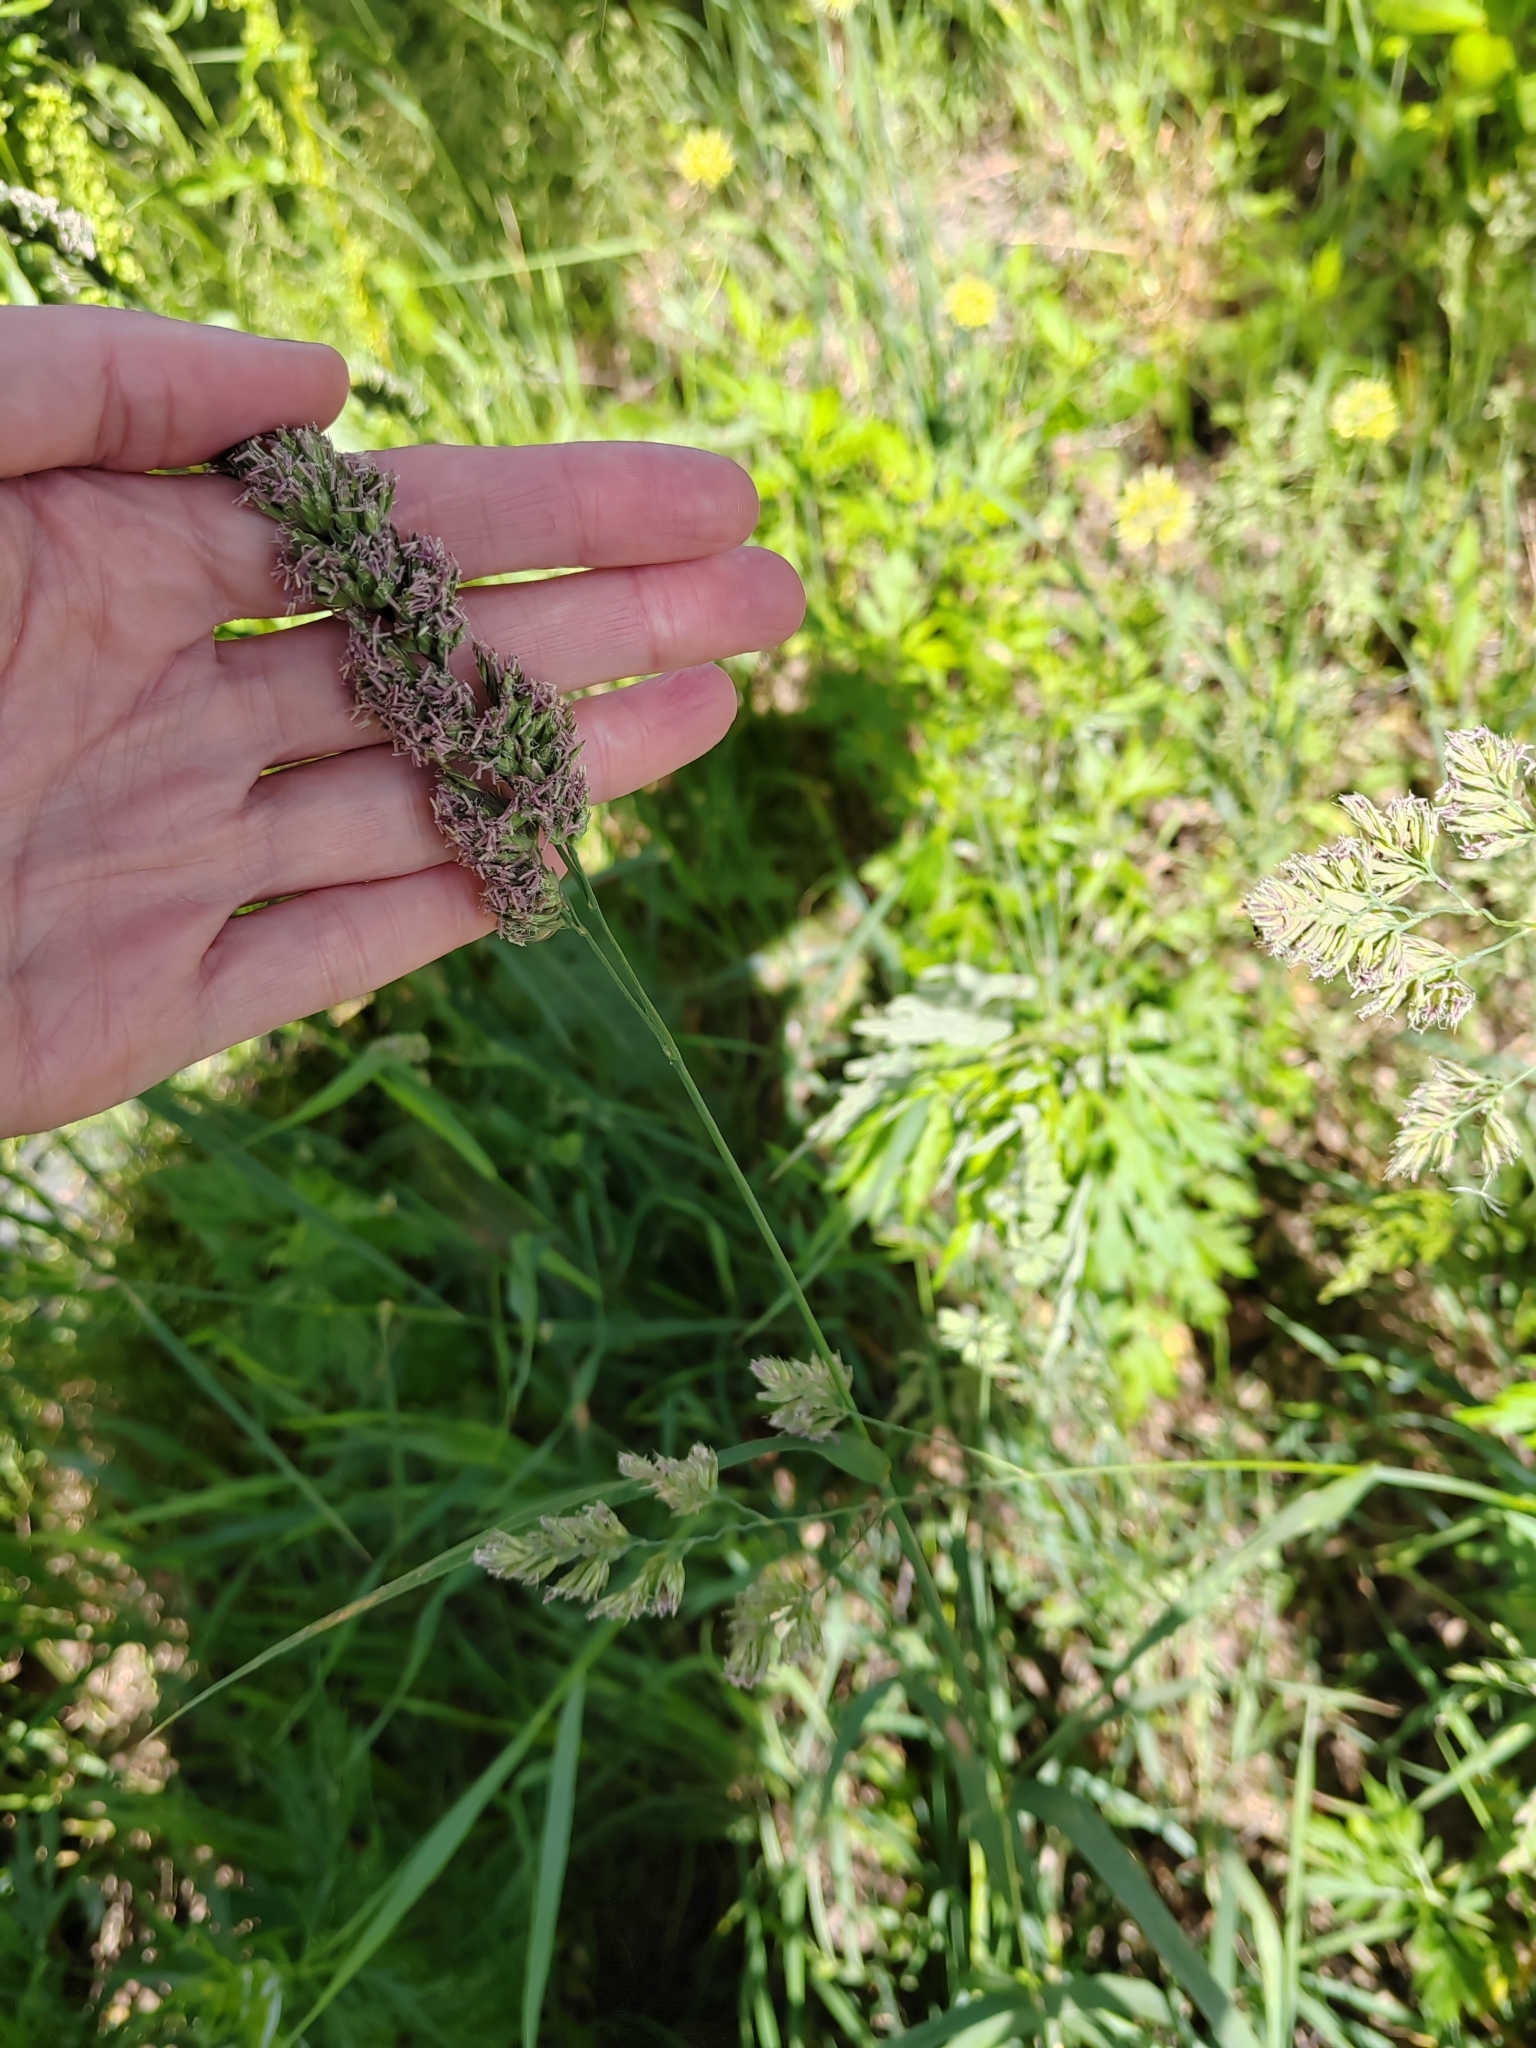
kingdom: Plantae
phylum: Tracheophyta
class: Liliopsida
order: Poales
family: Poaceae
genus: Dactylis
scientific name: Dactylis glomerata
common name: Orchardgrass
